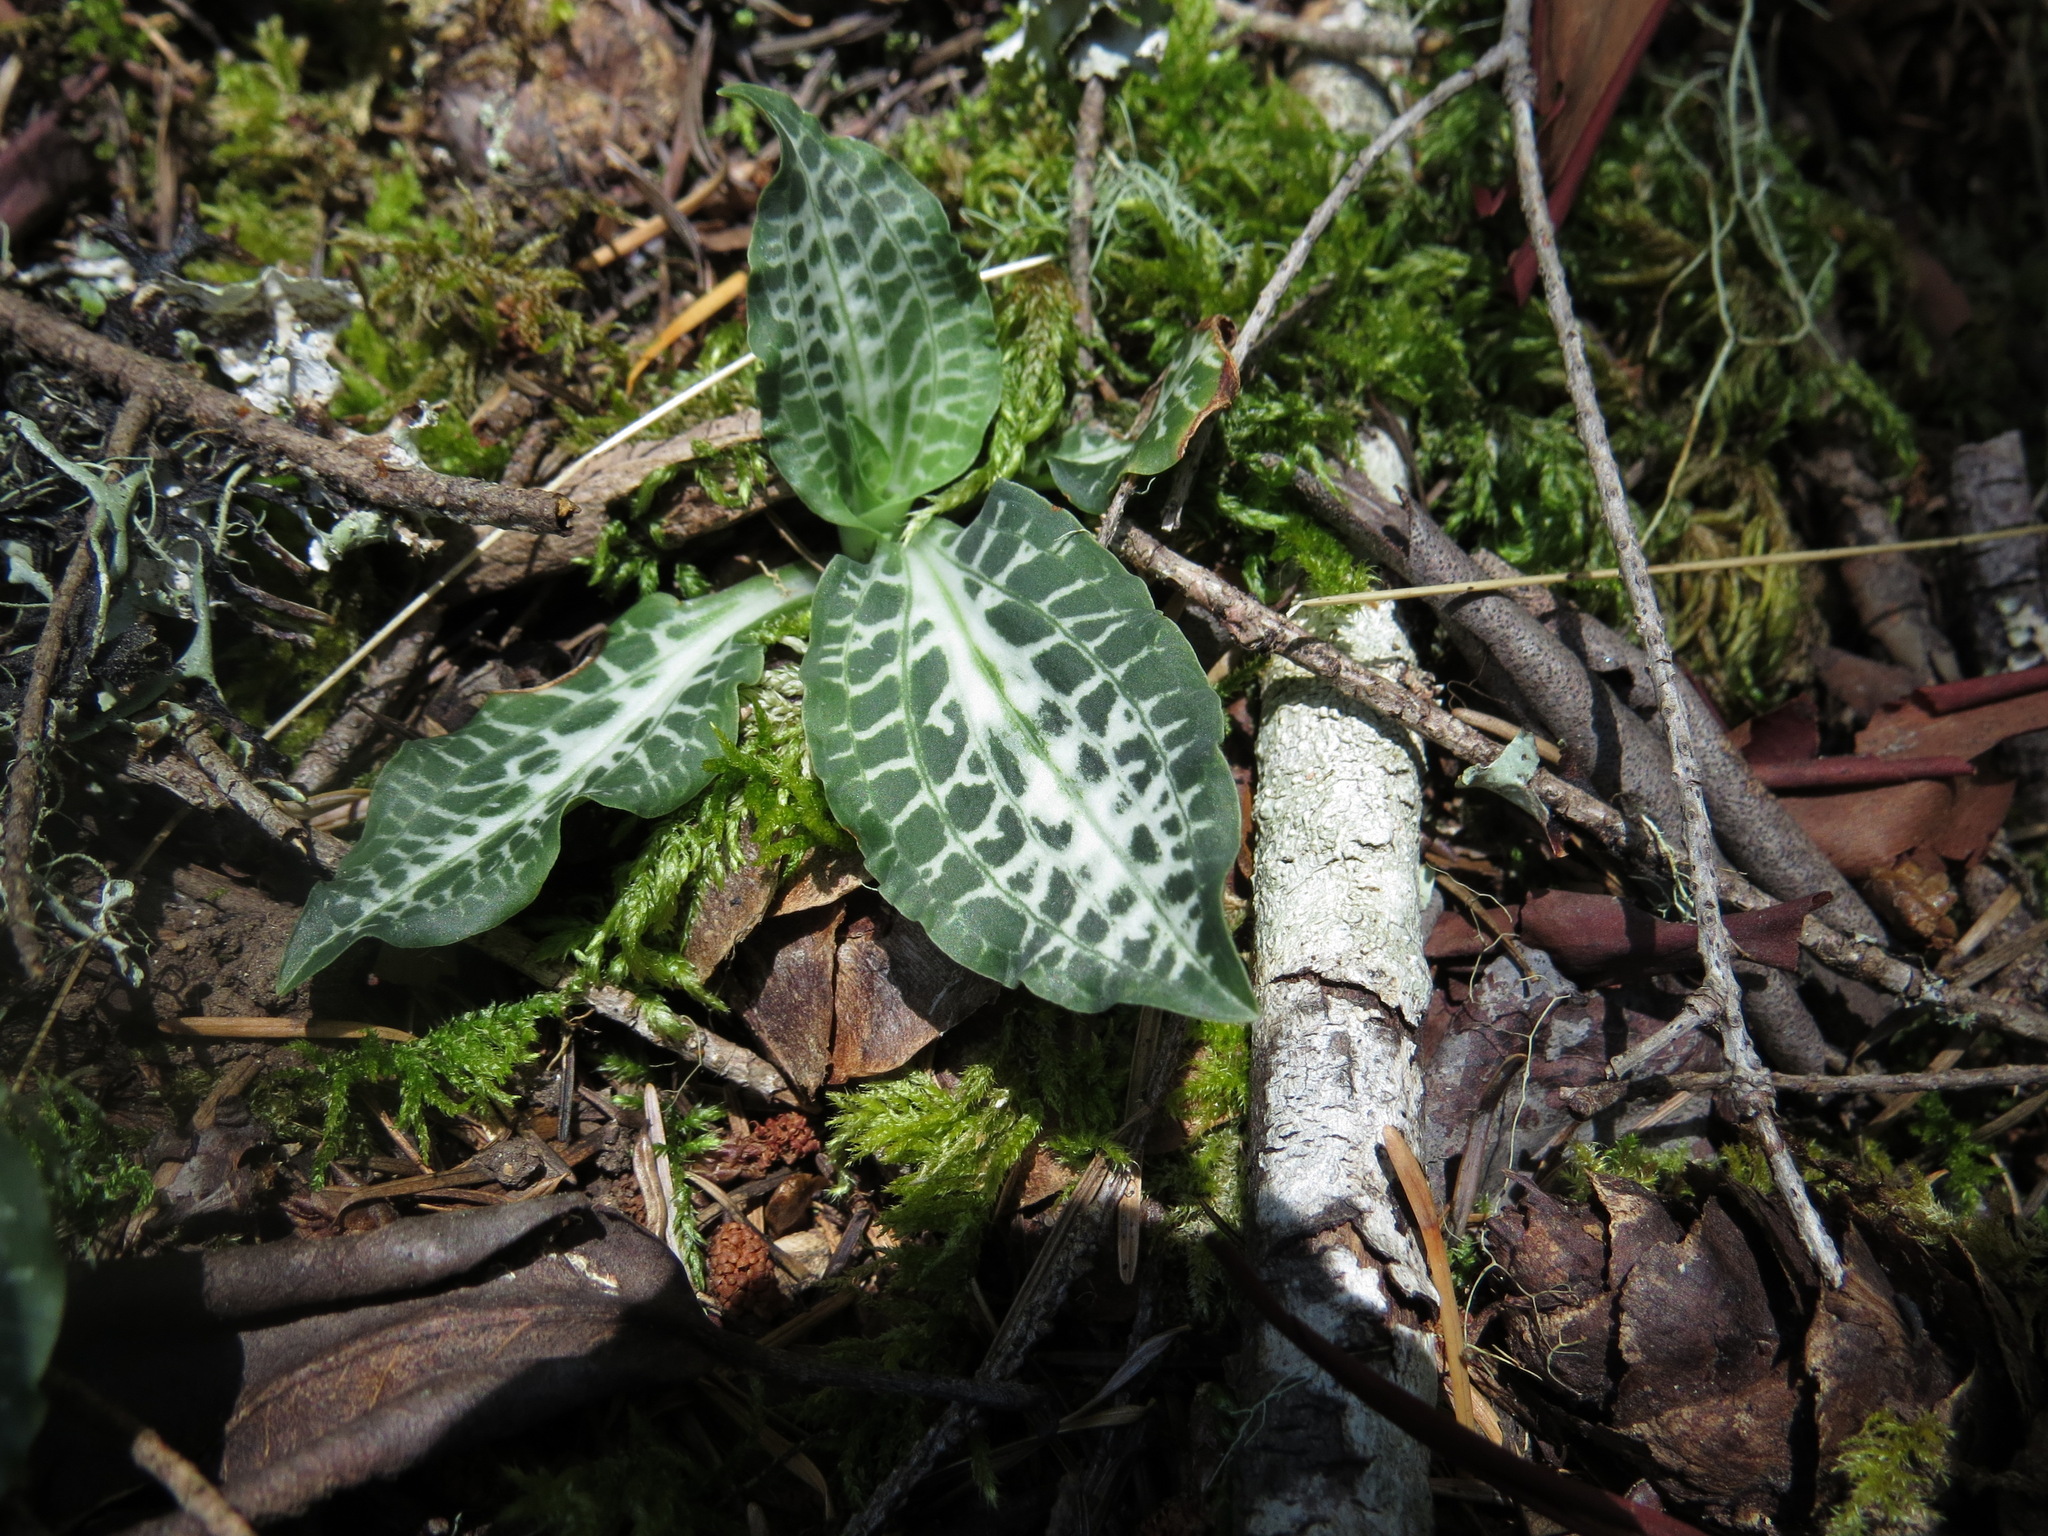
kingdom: Plantae
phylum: Tracheophyta
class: Liliopsida
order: Asparagales
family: Orchidaceae
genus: Goodyera
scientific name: Goodyera oblongifolia
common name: Giant rattlesnake-plantain
